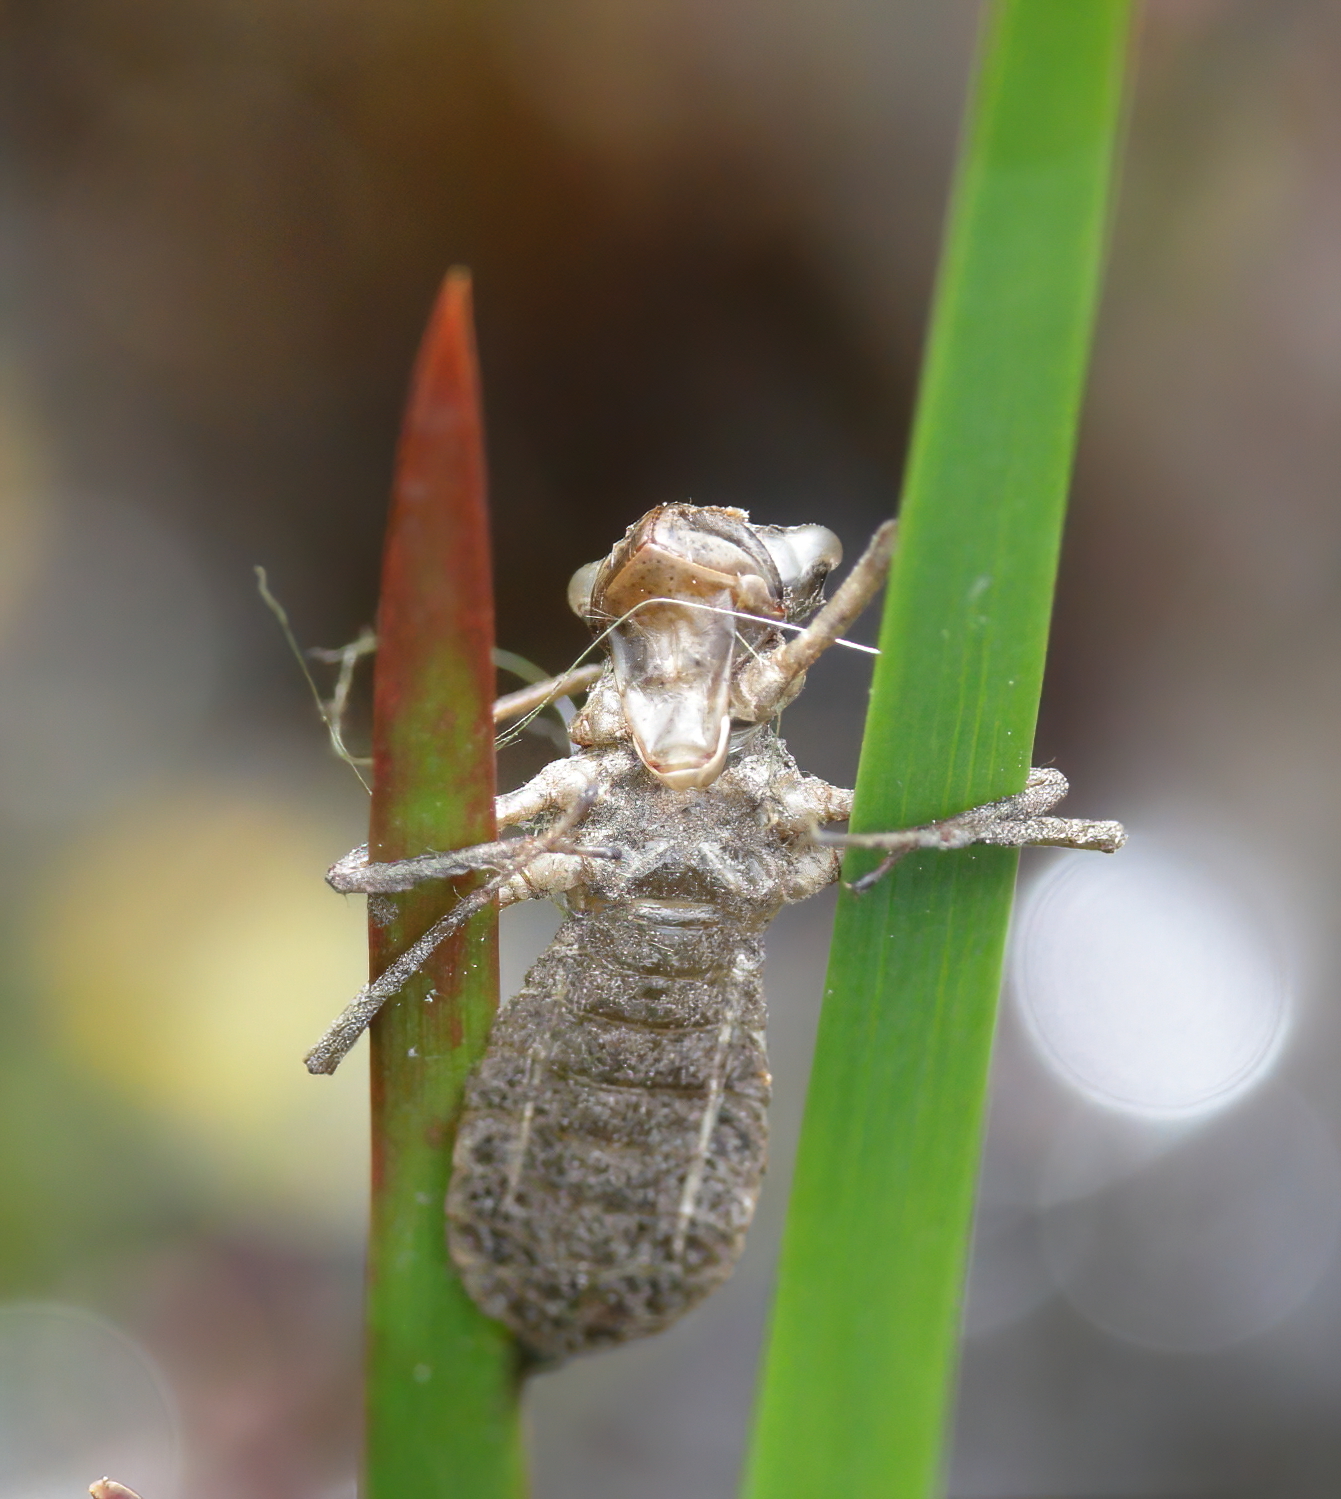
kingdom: Animalia
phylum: Arthropoda
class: Insecta
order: Odonata
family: Libellulidae
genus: Libellula
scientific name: Libellula semifasciata
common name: Painted skimmer
